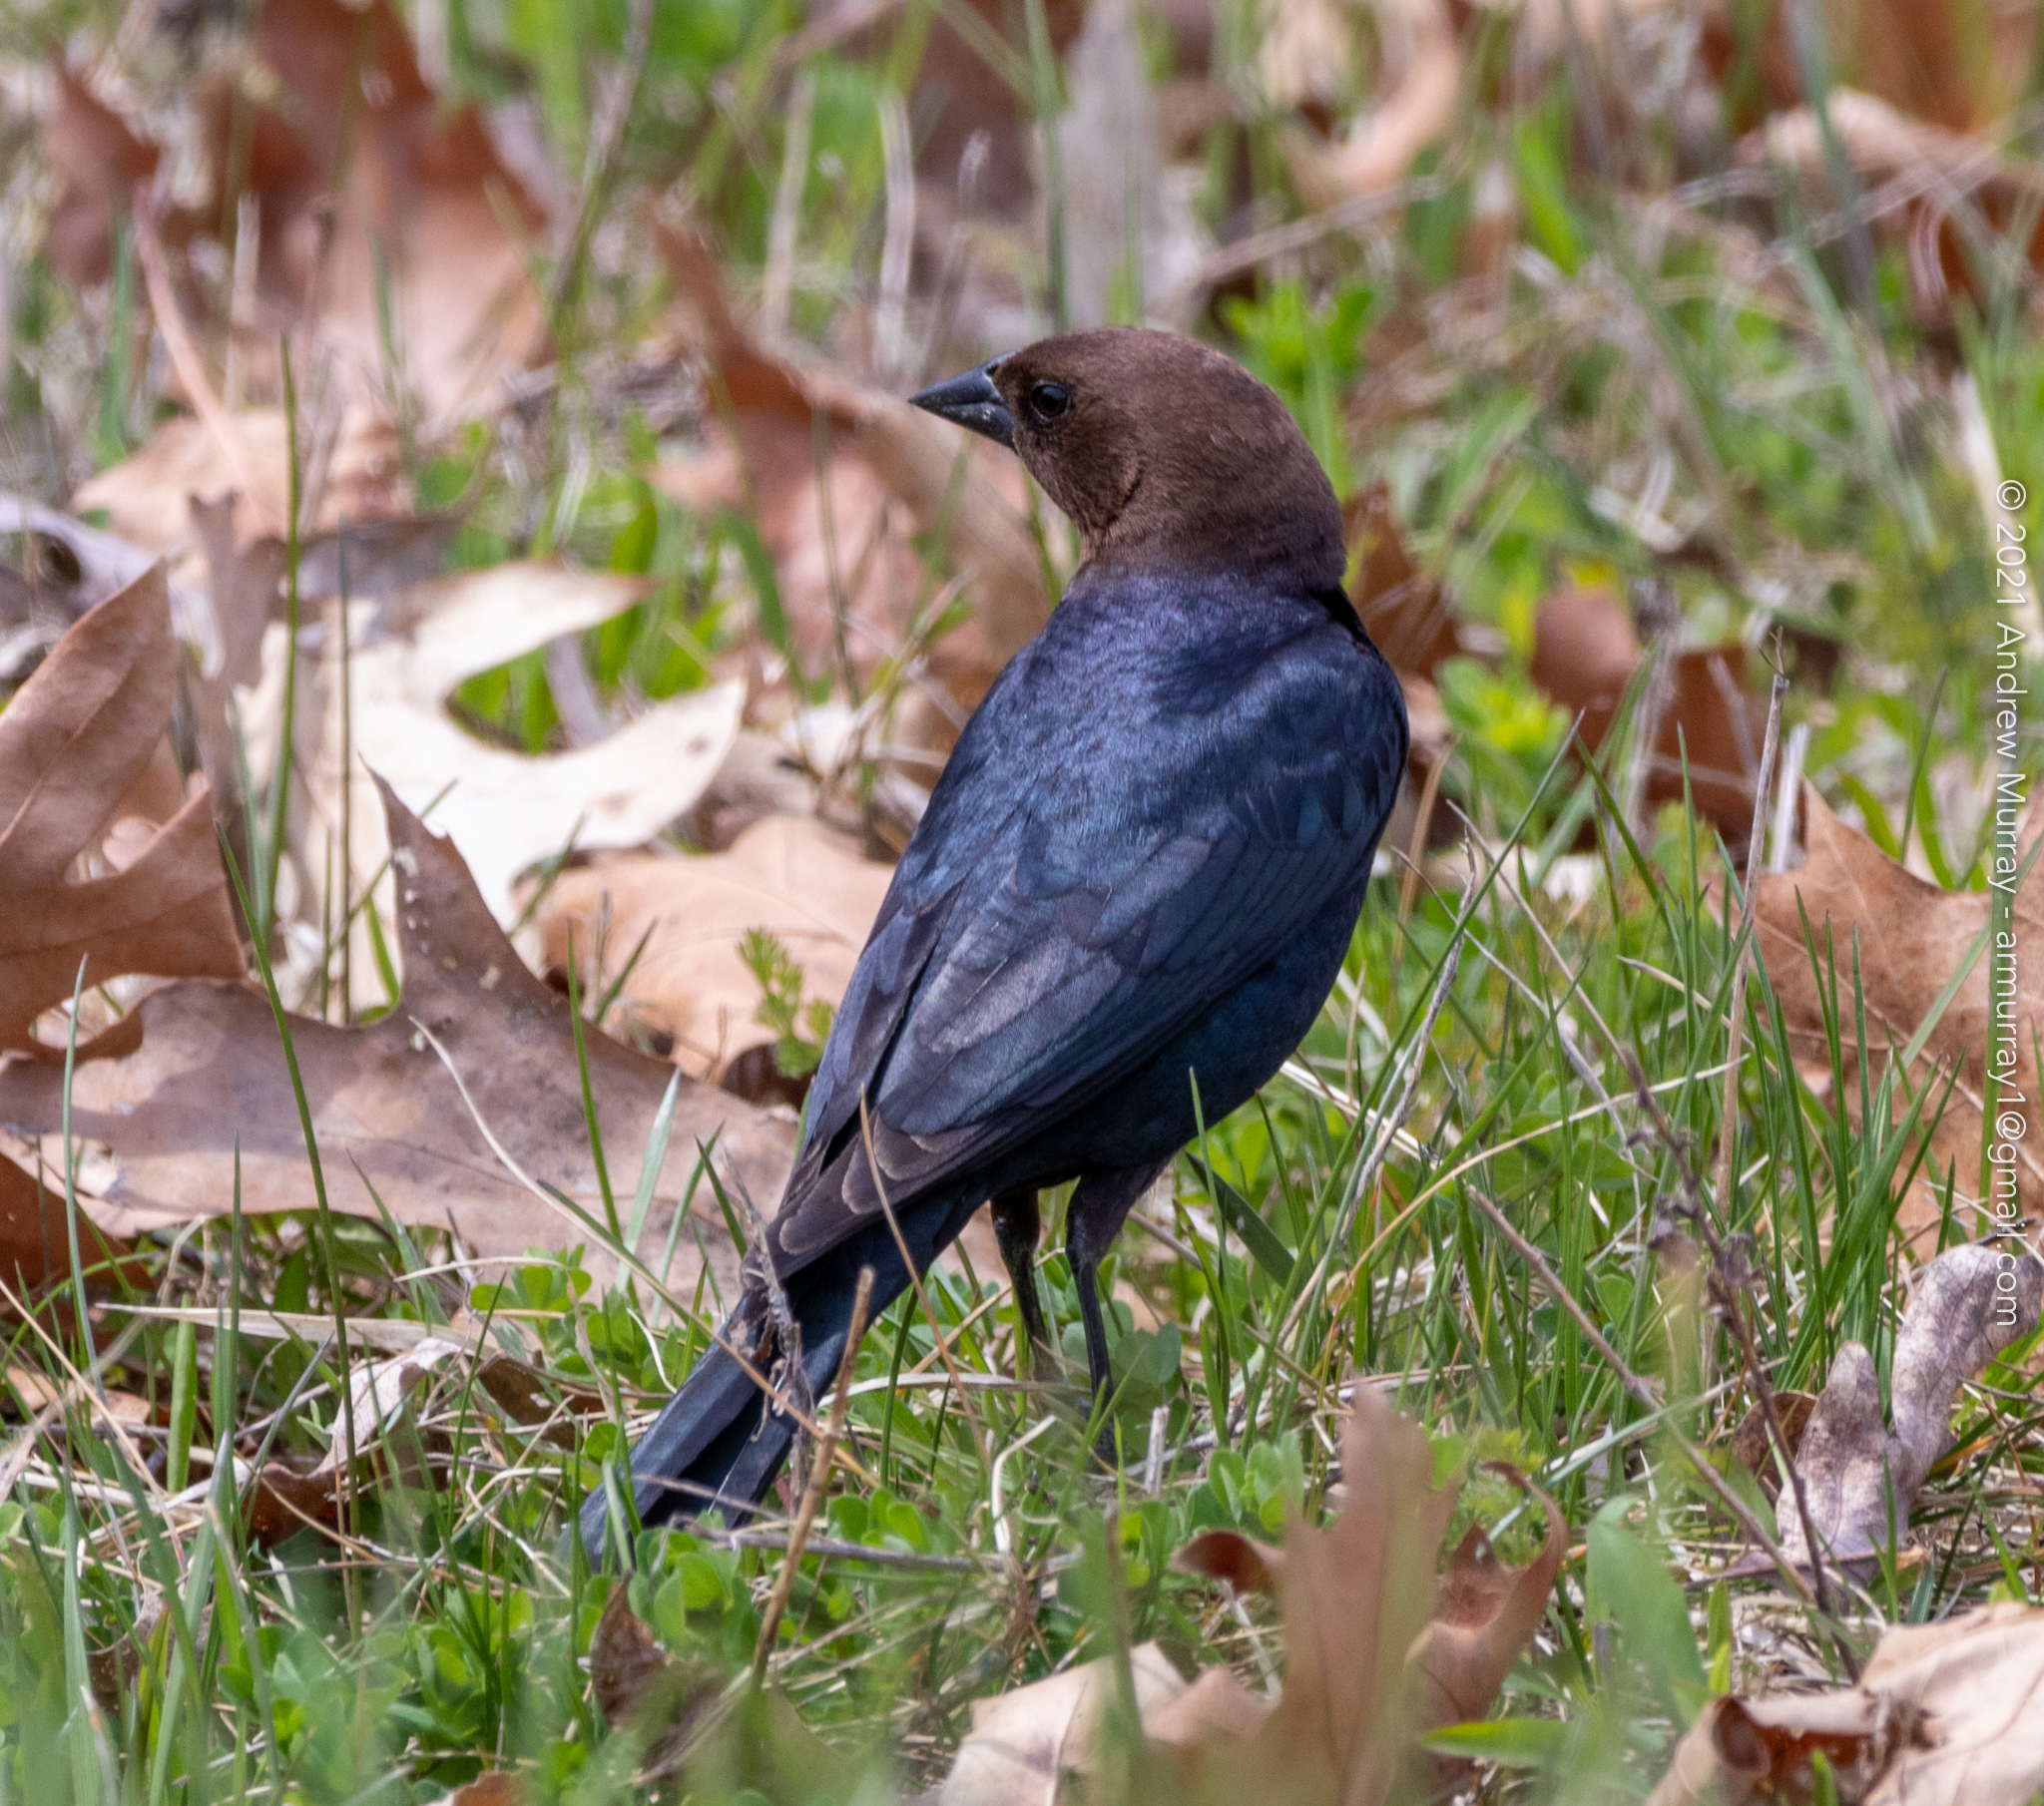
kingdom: Animalia
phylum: Chordata
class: Aves
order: Passeriformes
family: Icteridae
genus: Molothrus
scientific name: Molothrus ater
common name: Brown-headed cowbird
